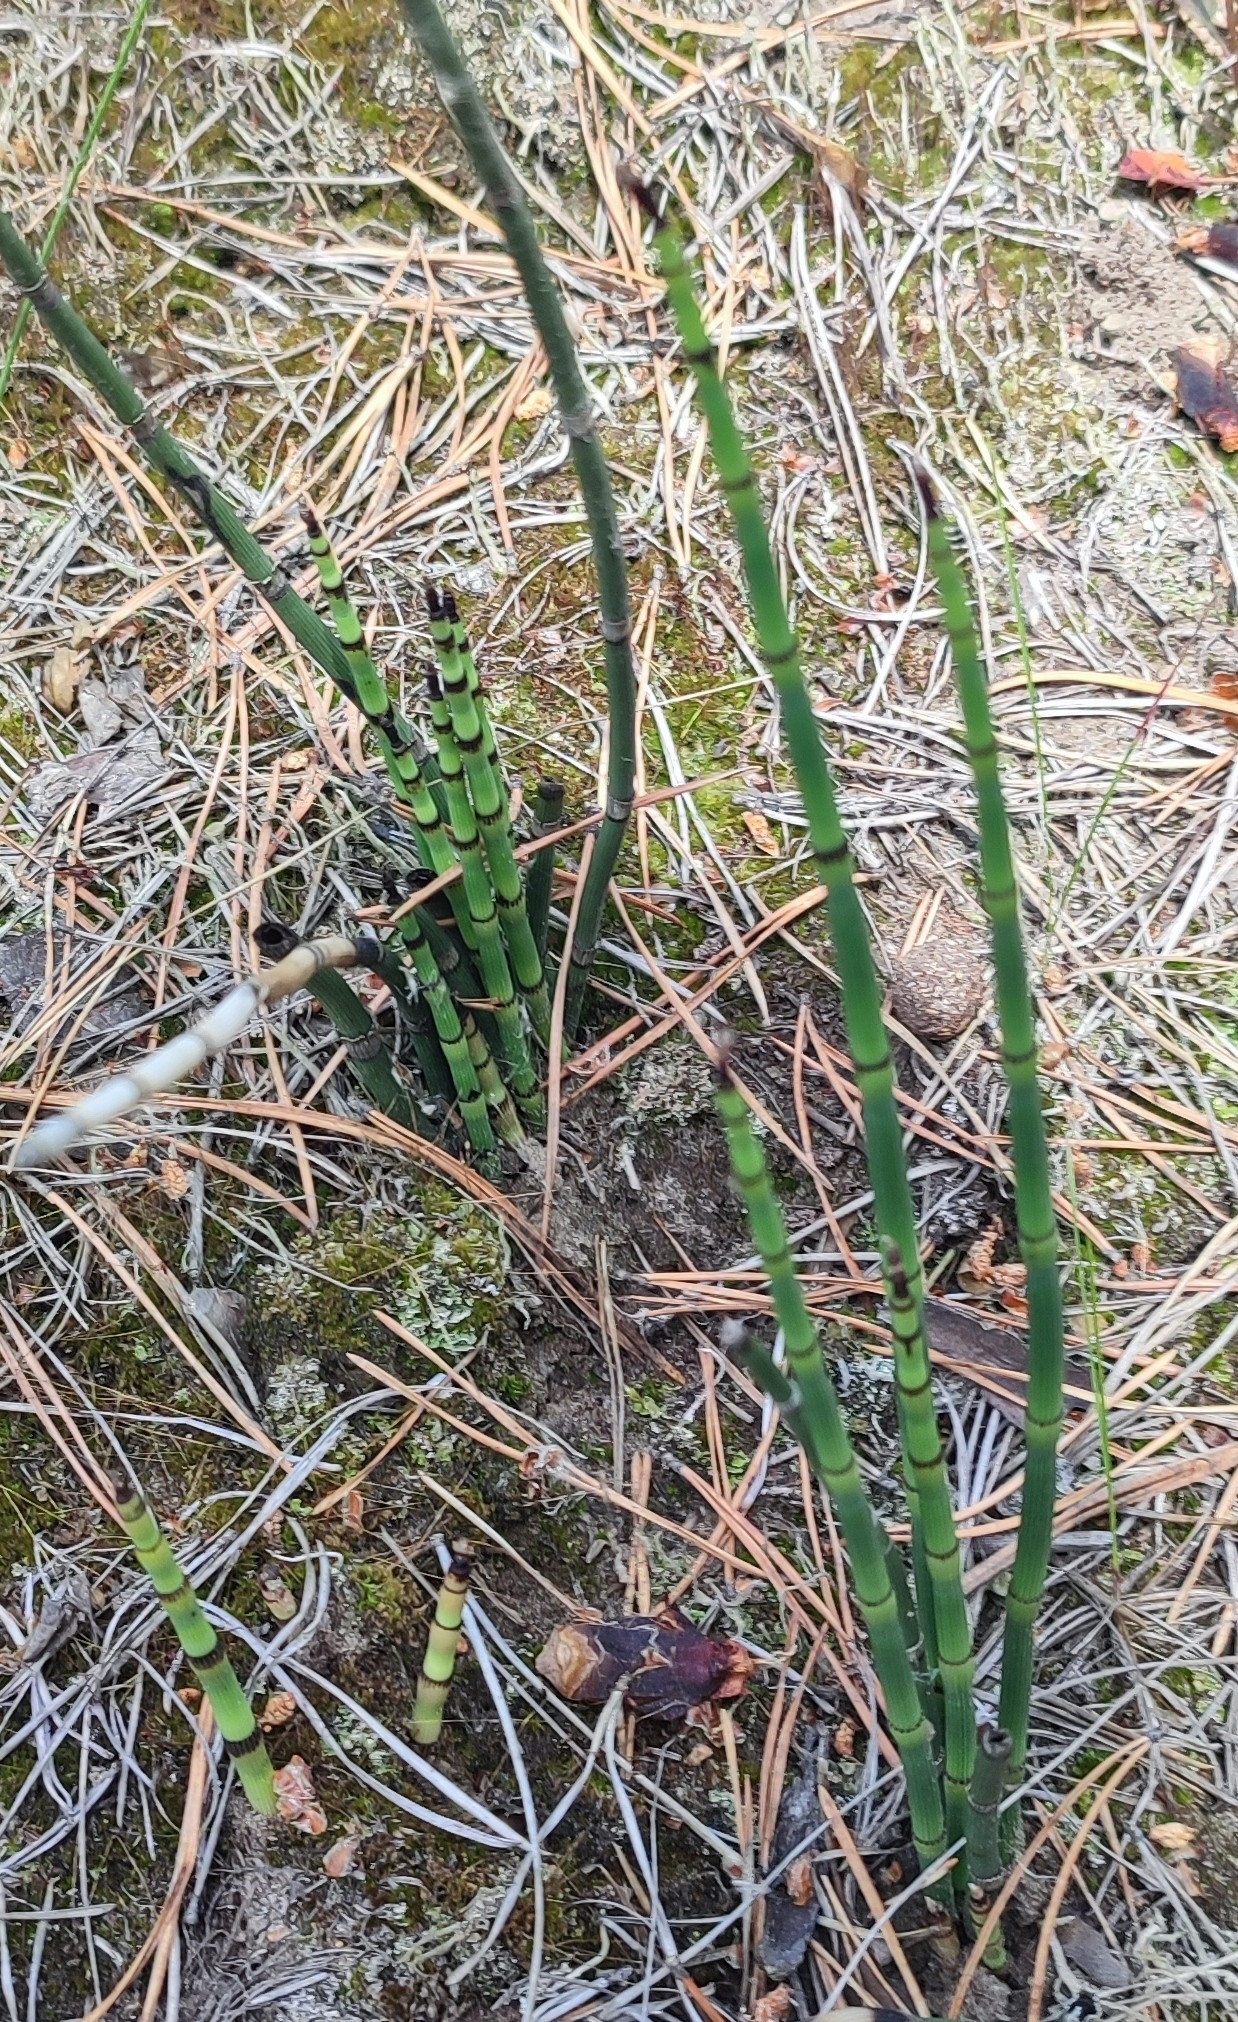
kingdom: Plantae
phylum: Tracheophyta
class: Polypodiopsida
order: Equisetales
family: Equisetaceae
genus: Equisetum
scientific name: Equisetum hyemale
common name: Rough horsetail
